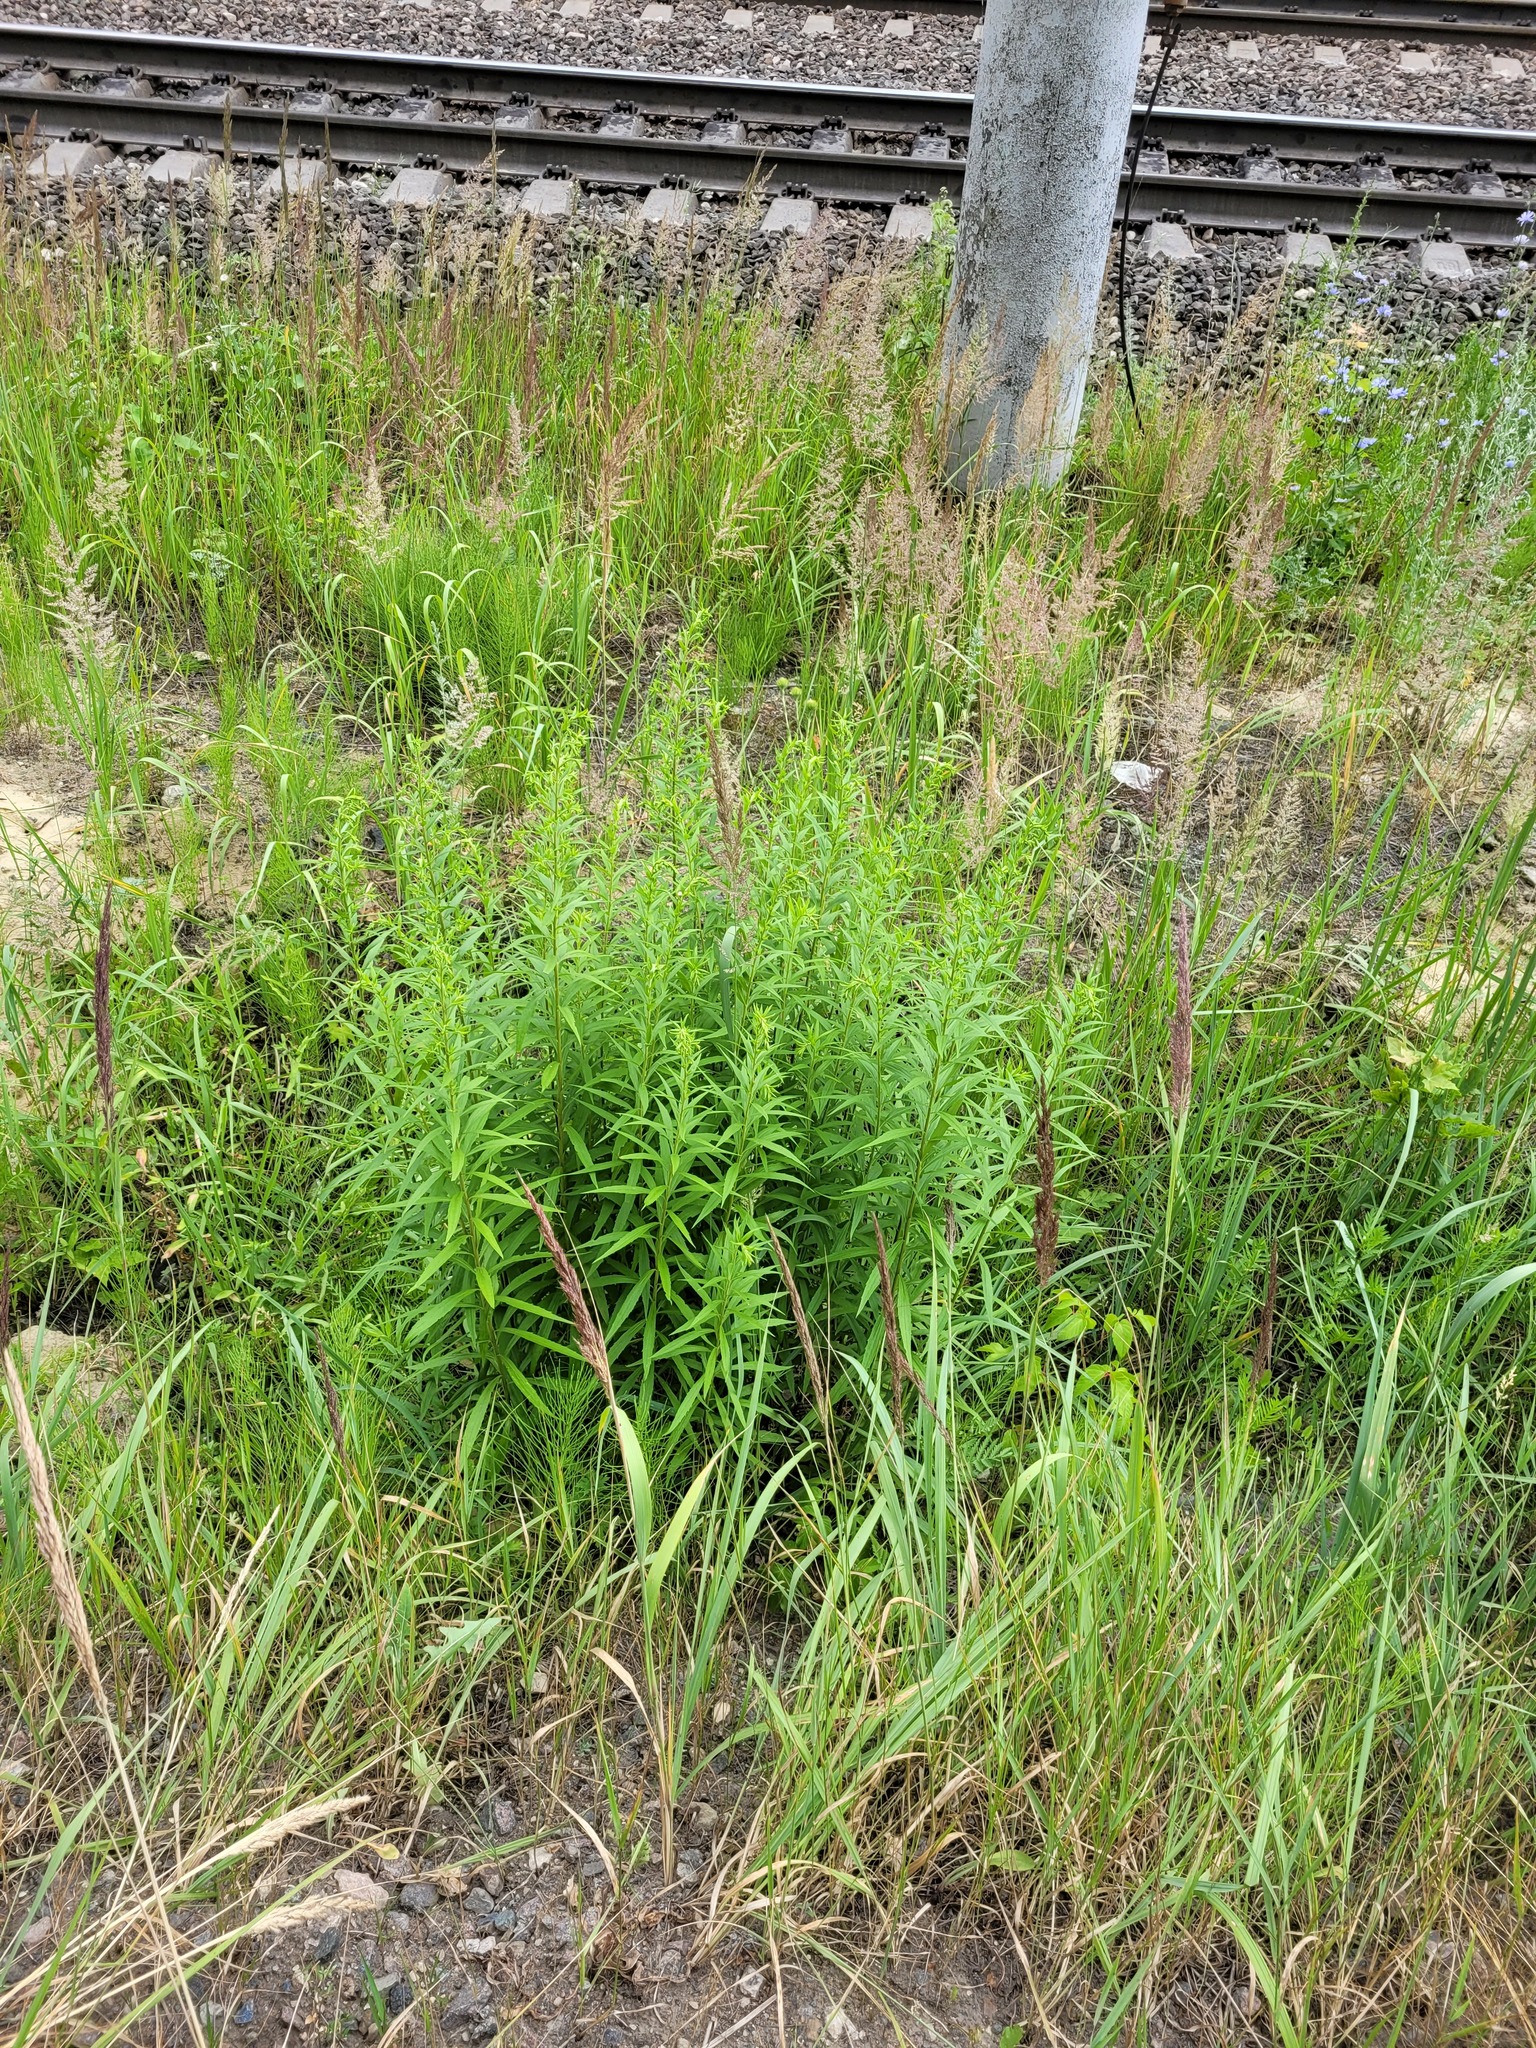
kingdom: Plantae
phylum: Tracheophyta
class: Magnoliopsida
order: Asterales
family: Asteraceae
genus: Solidago
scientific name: Solidago canadensis
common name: Canada goldenrod
